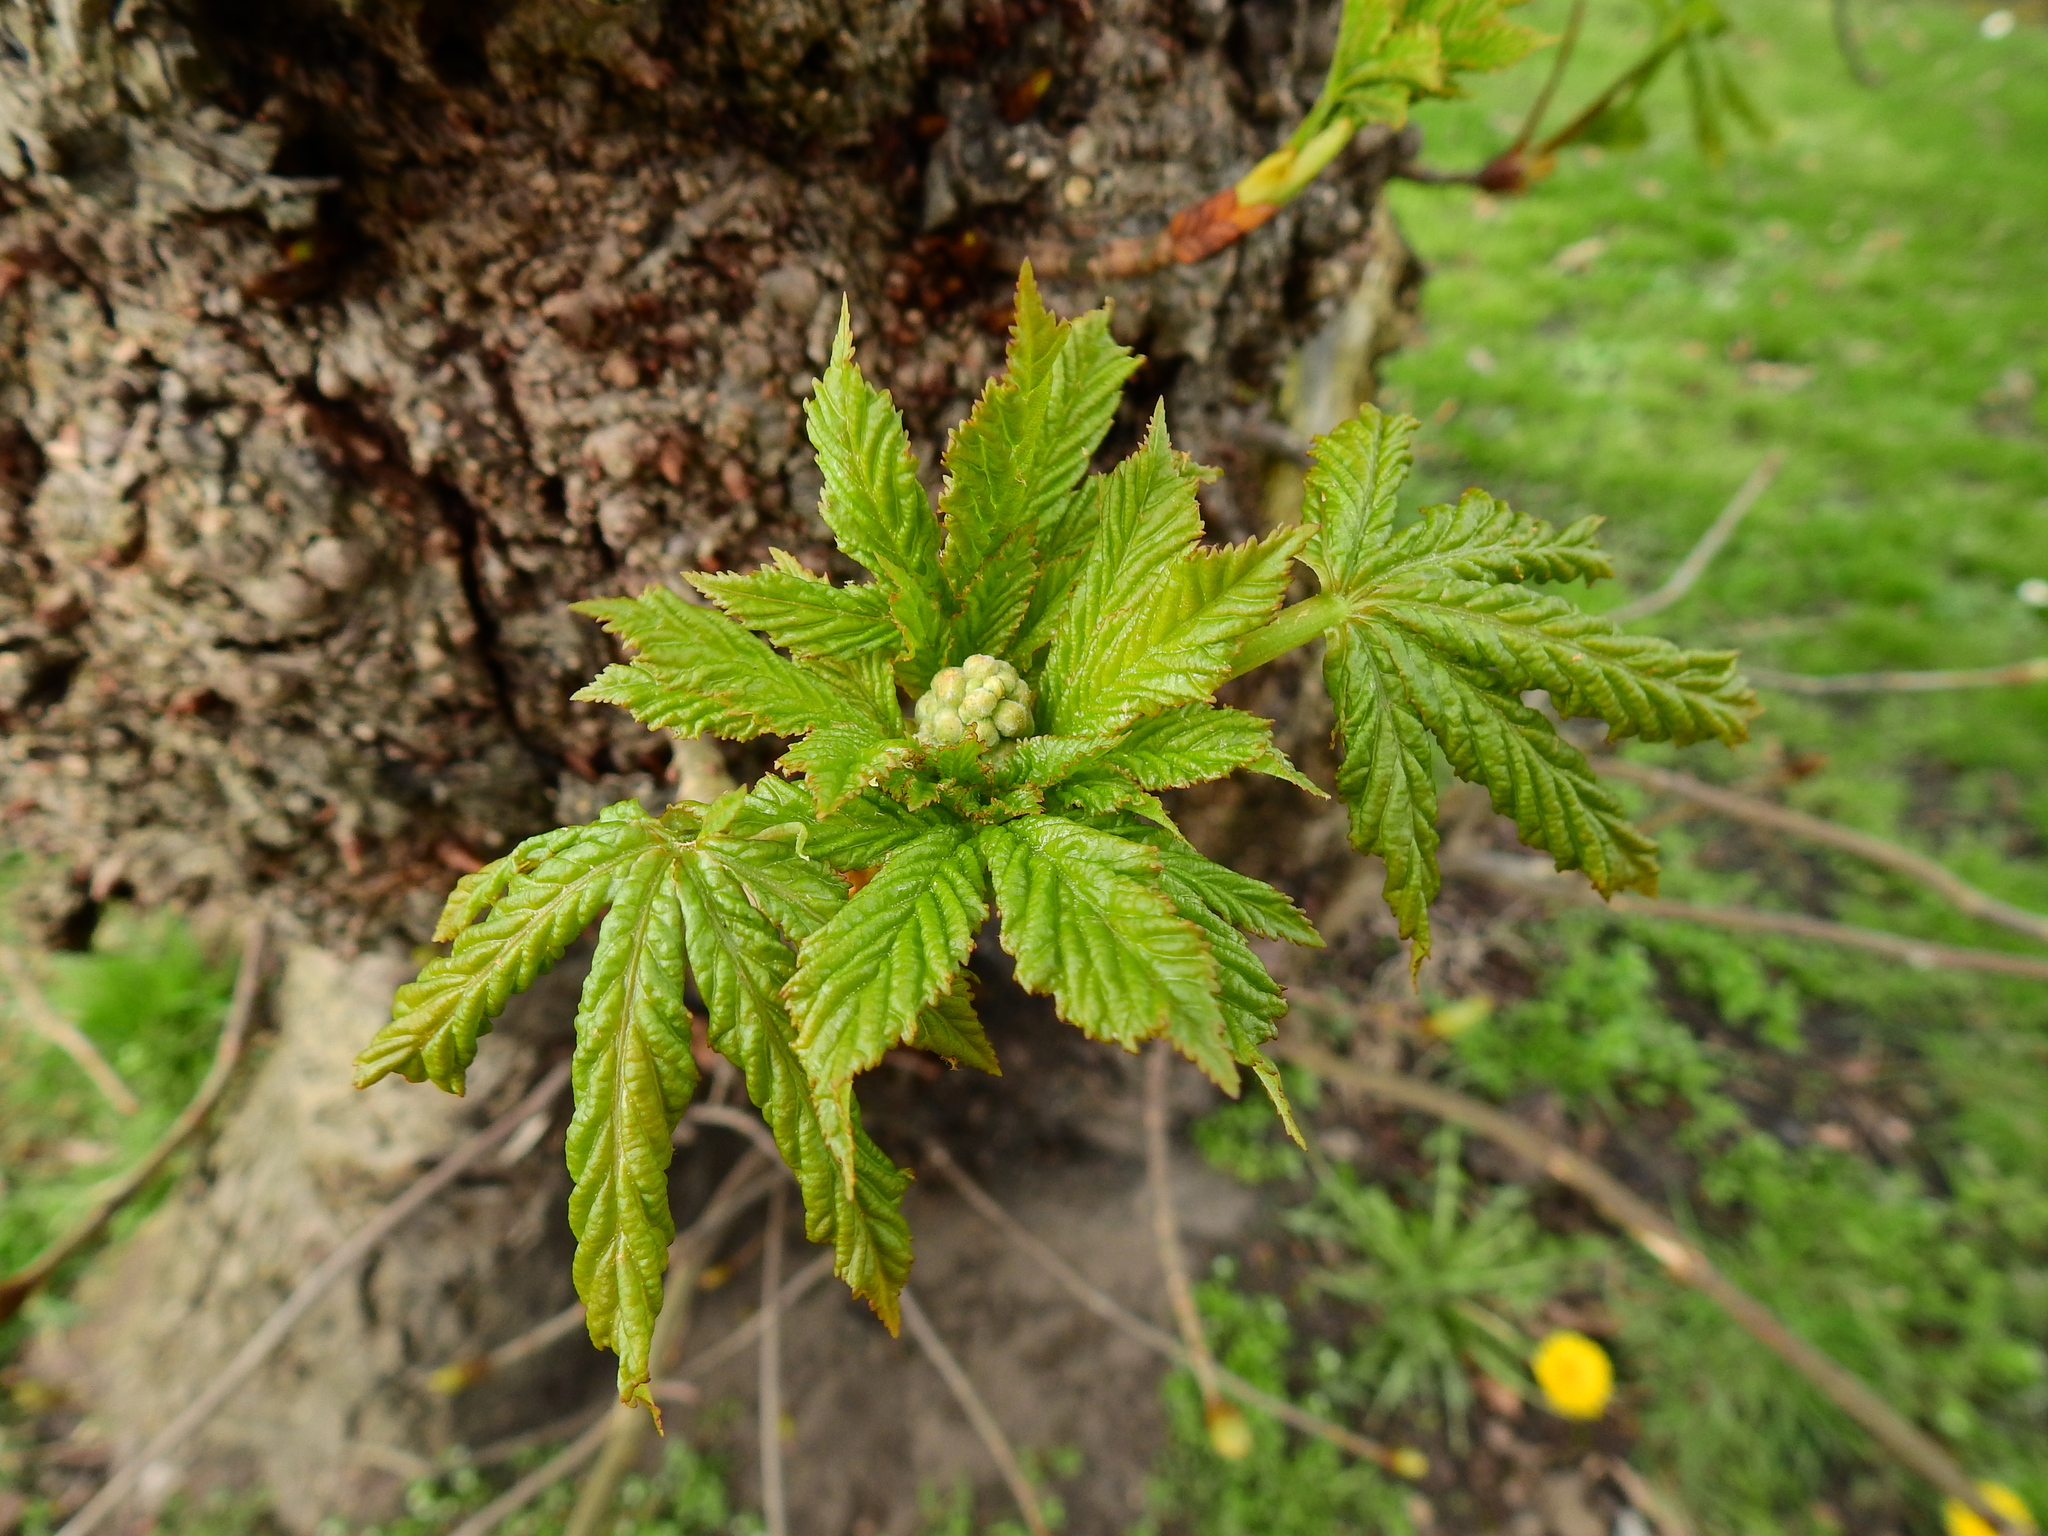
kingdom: Plantae
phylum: Tracheophyta
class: Magnoliopsida
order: Sapindales
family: Sapindaceae
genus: Aesculus
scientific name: Aesculus hippocastanum
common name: Horse-chestnut
